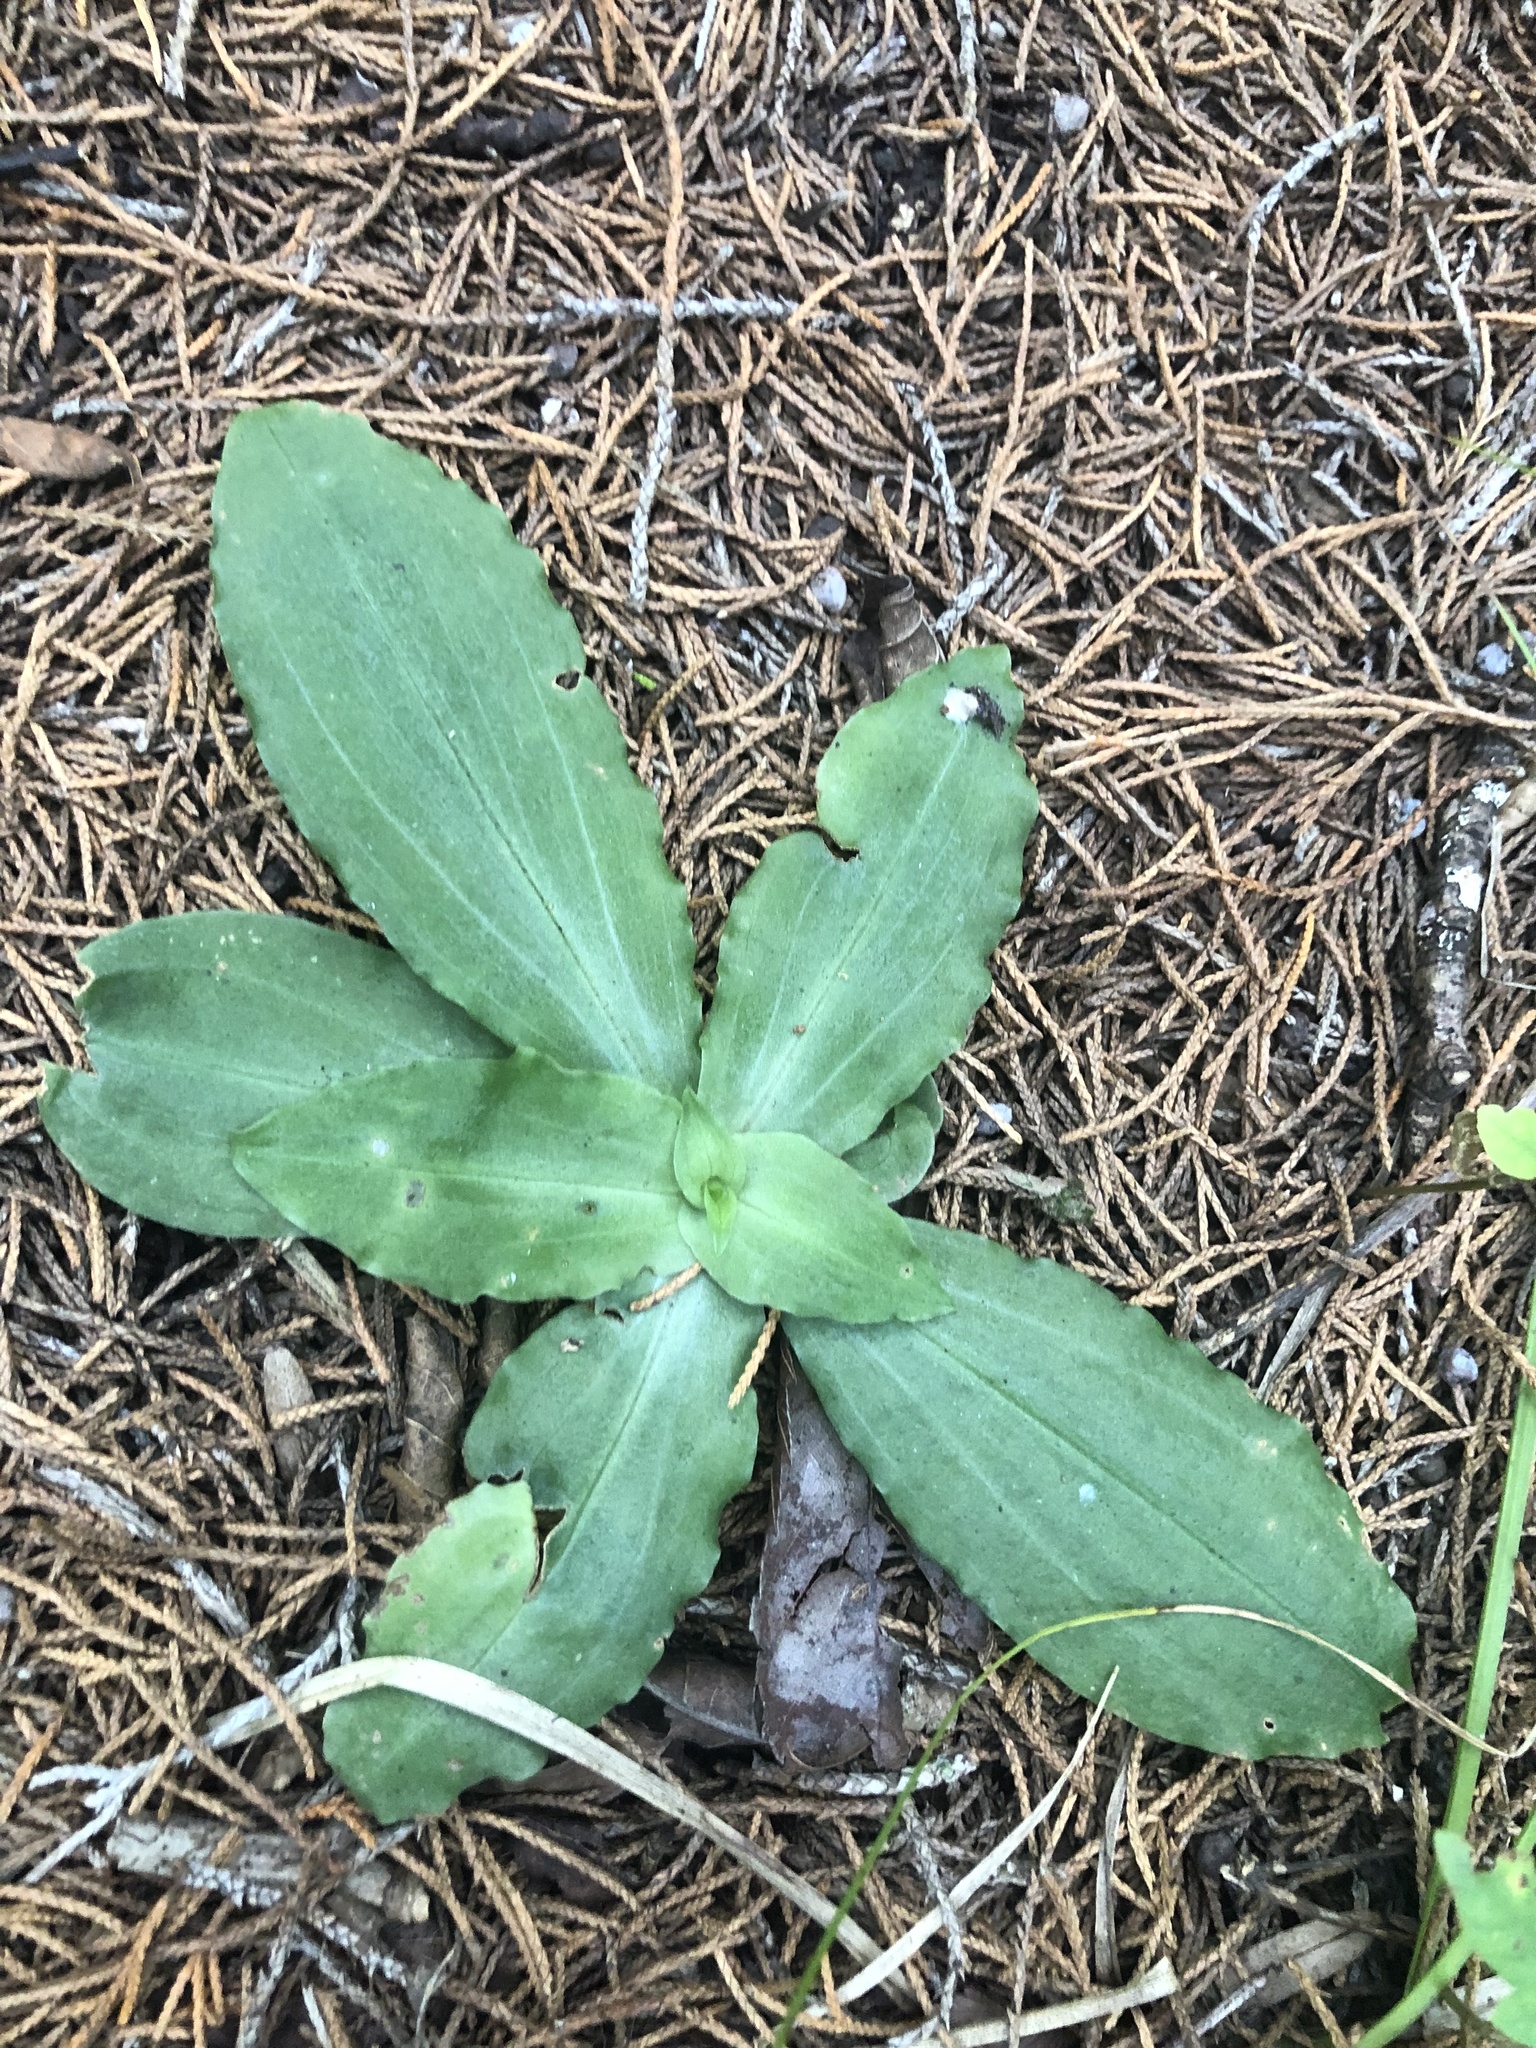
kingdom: Plantae
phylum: Tracheophyta
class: Liliopsida
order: Asparagales
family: Orchidaceae
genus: Ponthieva
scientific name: Ponthieva racemosa
